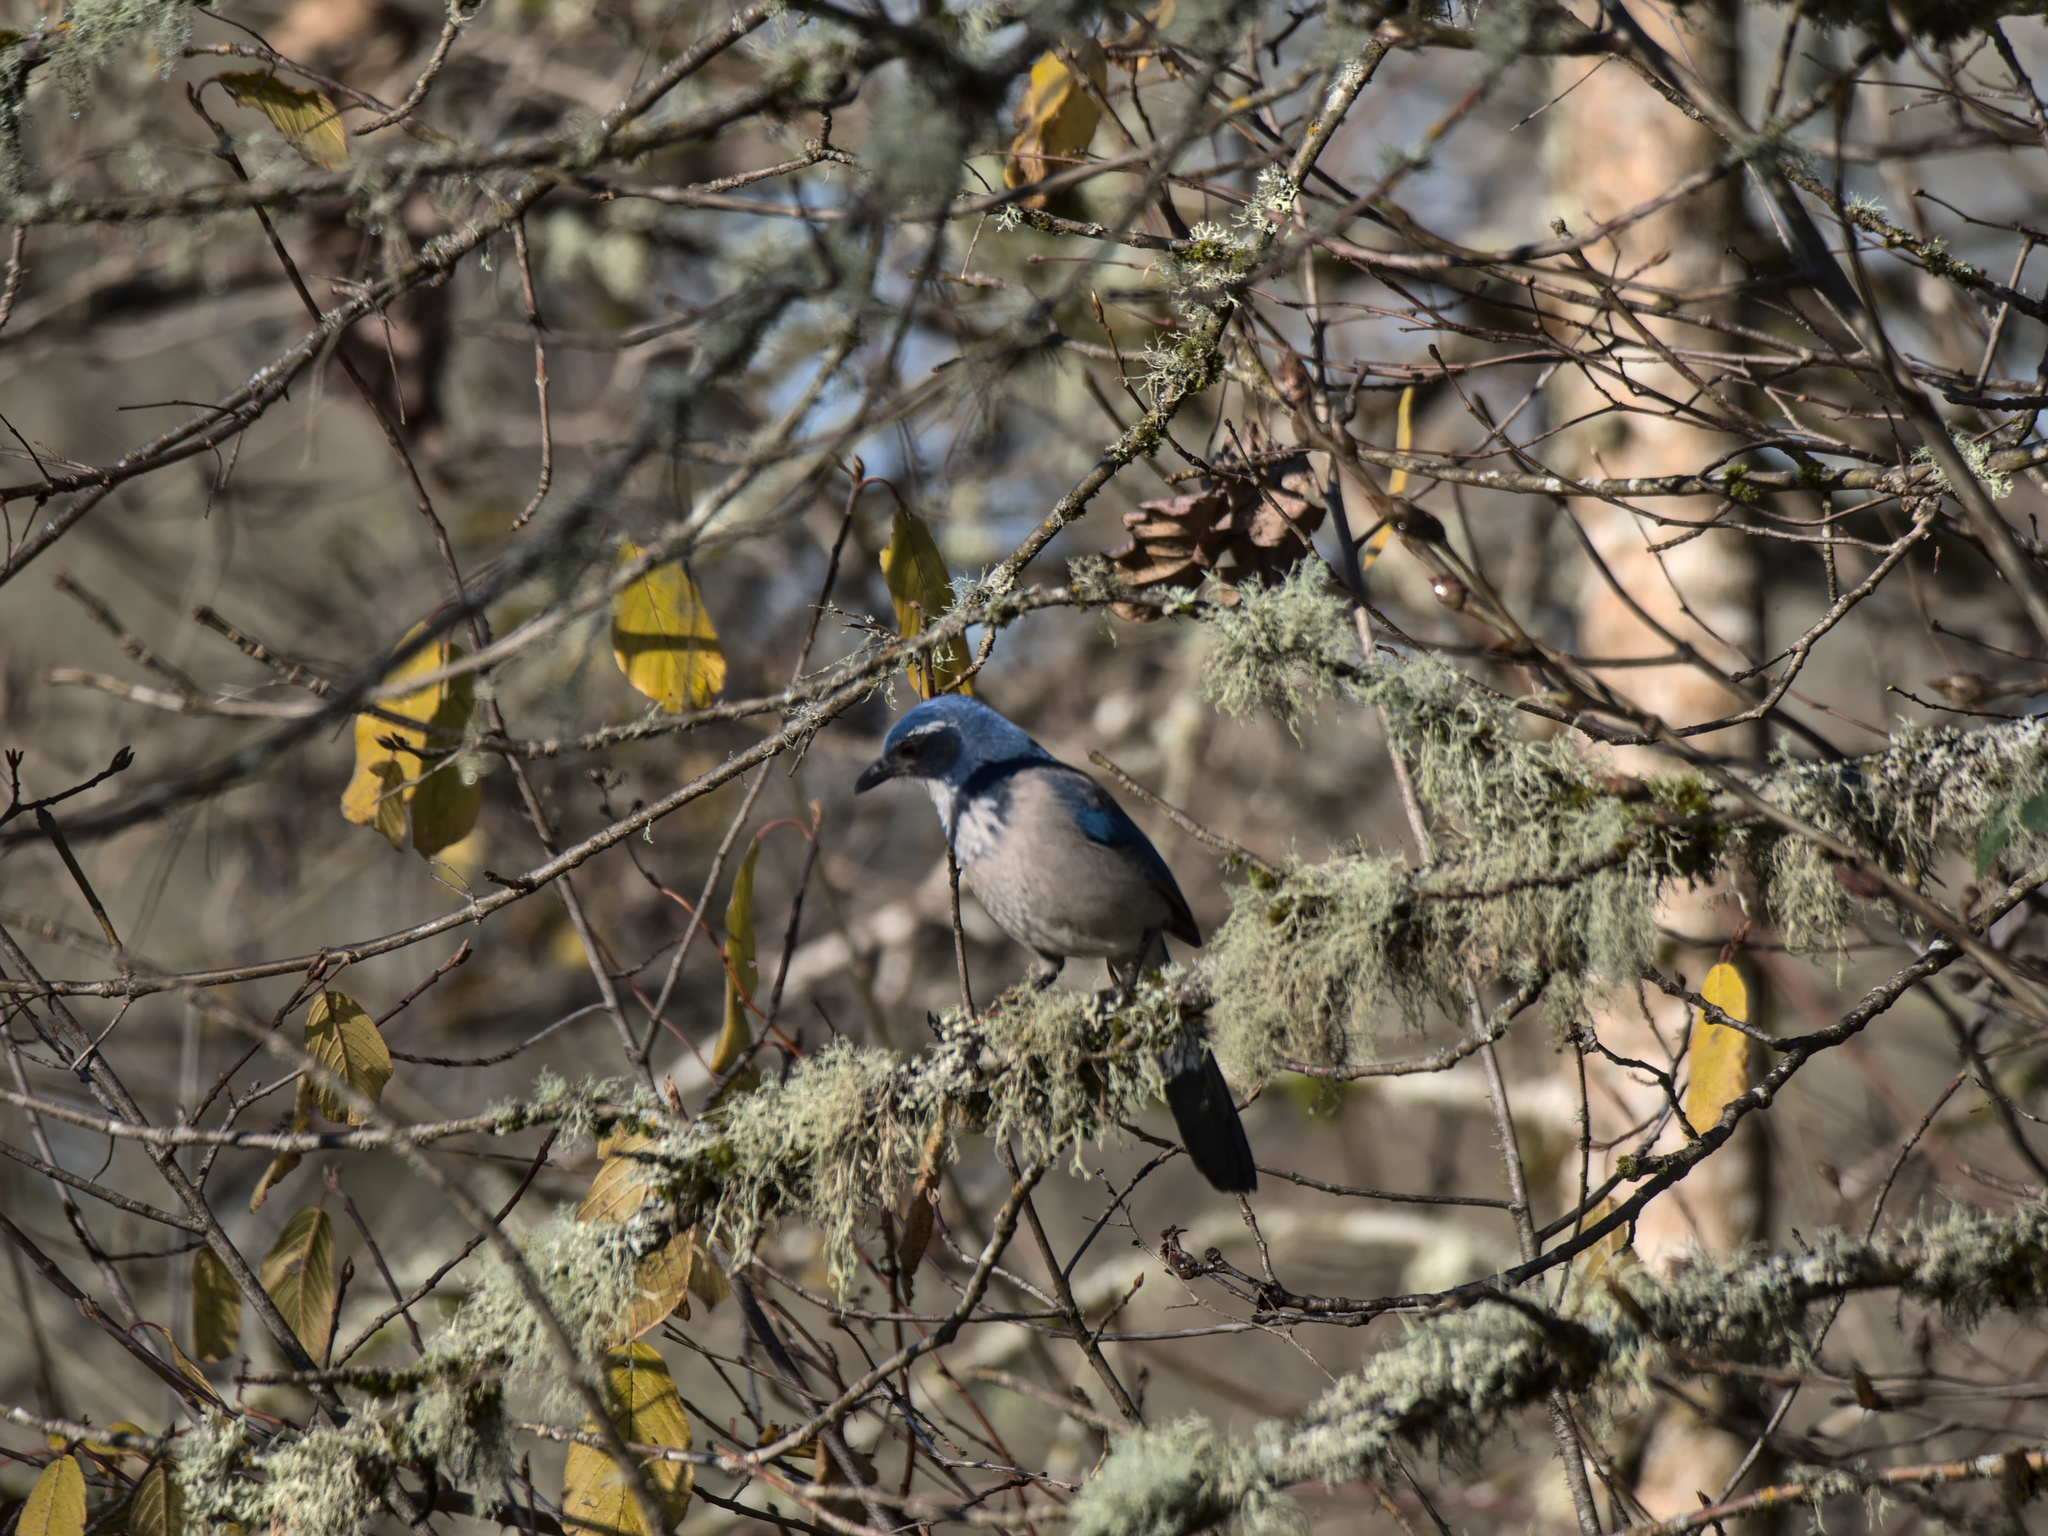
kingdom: Animalia
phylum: Chordata
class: Aves
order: Passeriformes
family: Corvidae
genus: Aphelocoma
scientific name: Aphelocoma californica
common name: California scrub-jay
